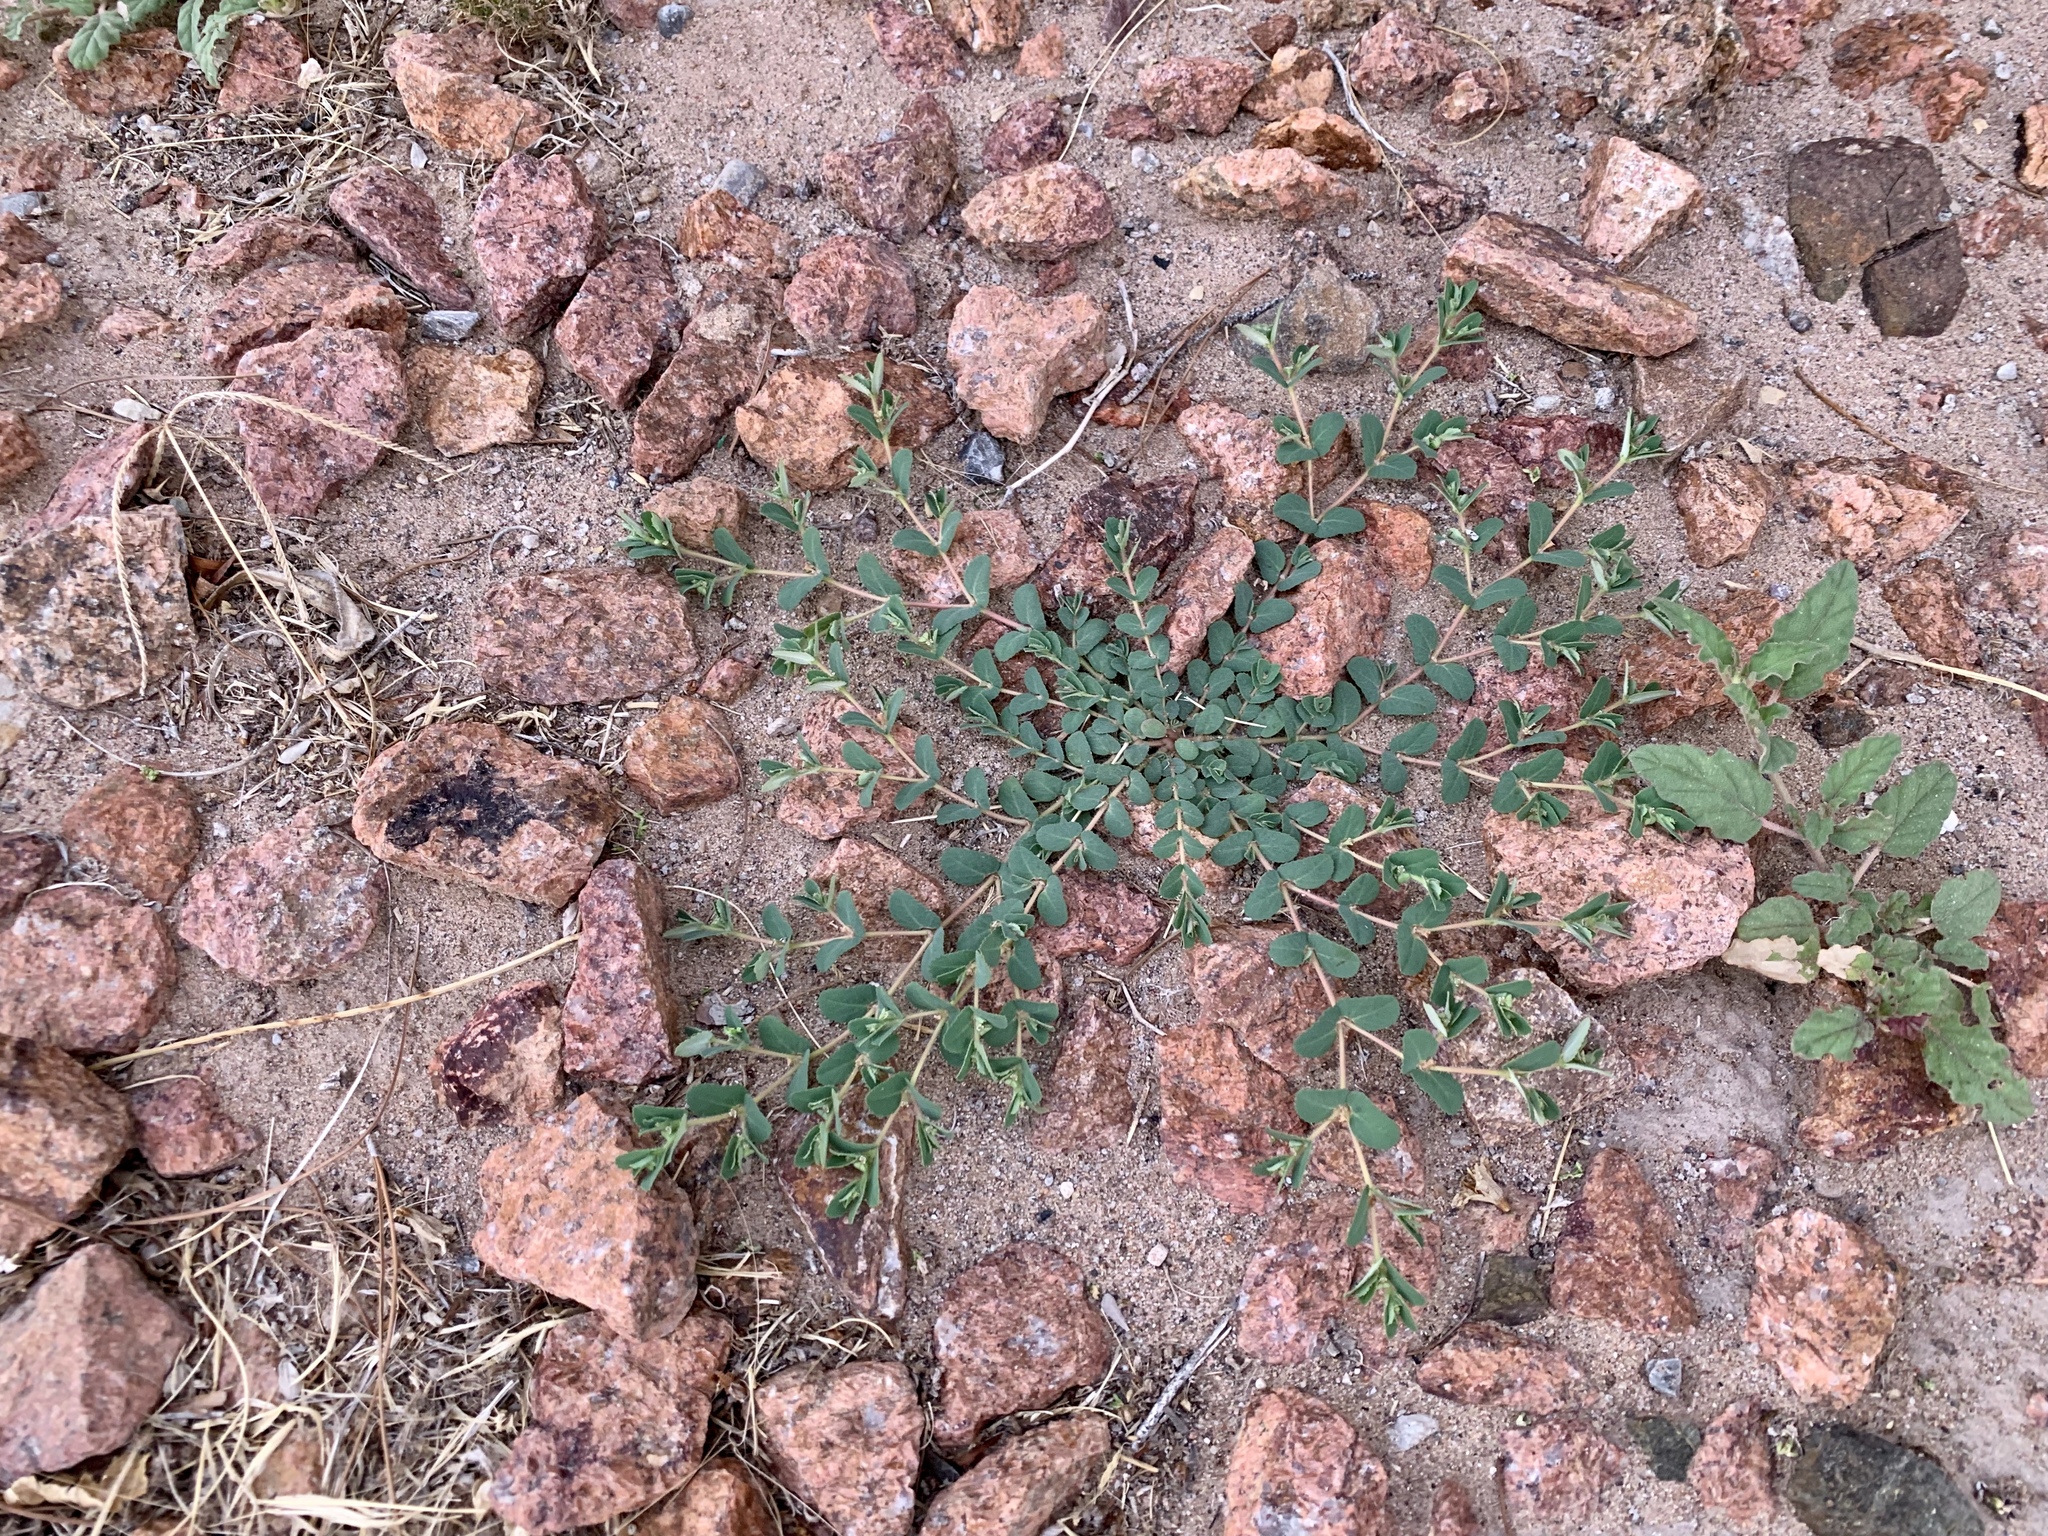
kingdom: Plantae
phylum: Tracheophyta
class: Magnoliopsida
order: Malpighiales
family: Euphorbiaceae
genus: Euphorbia
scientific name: Euphorbia serrula
